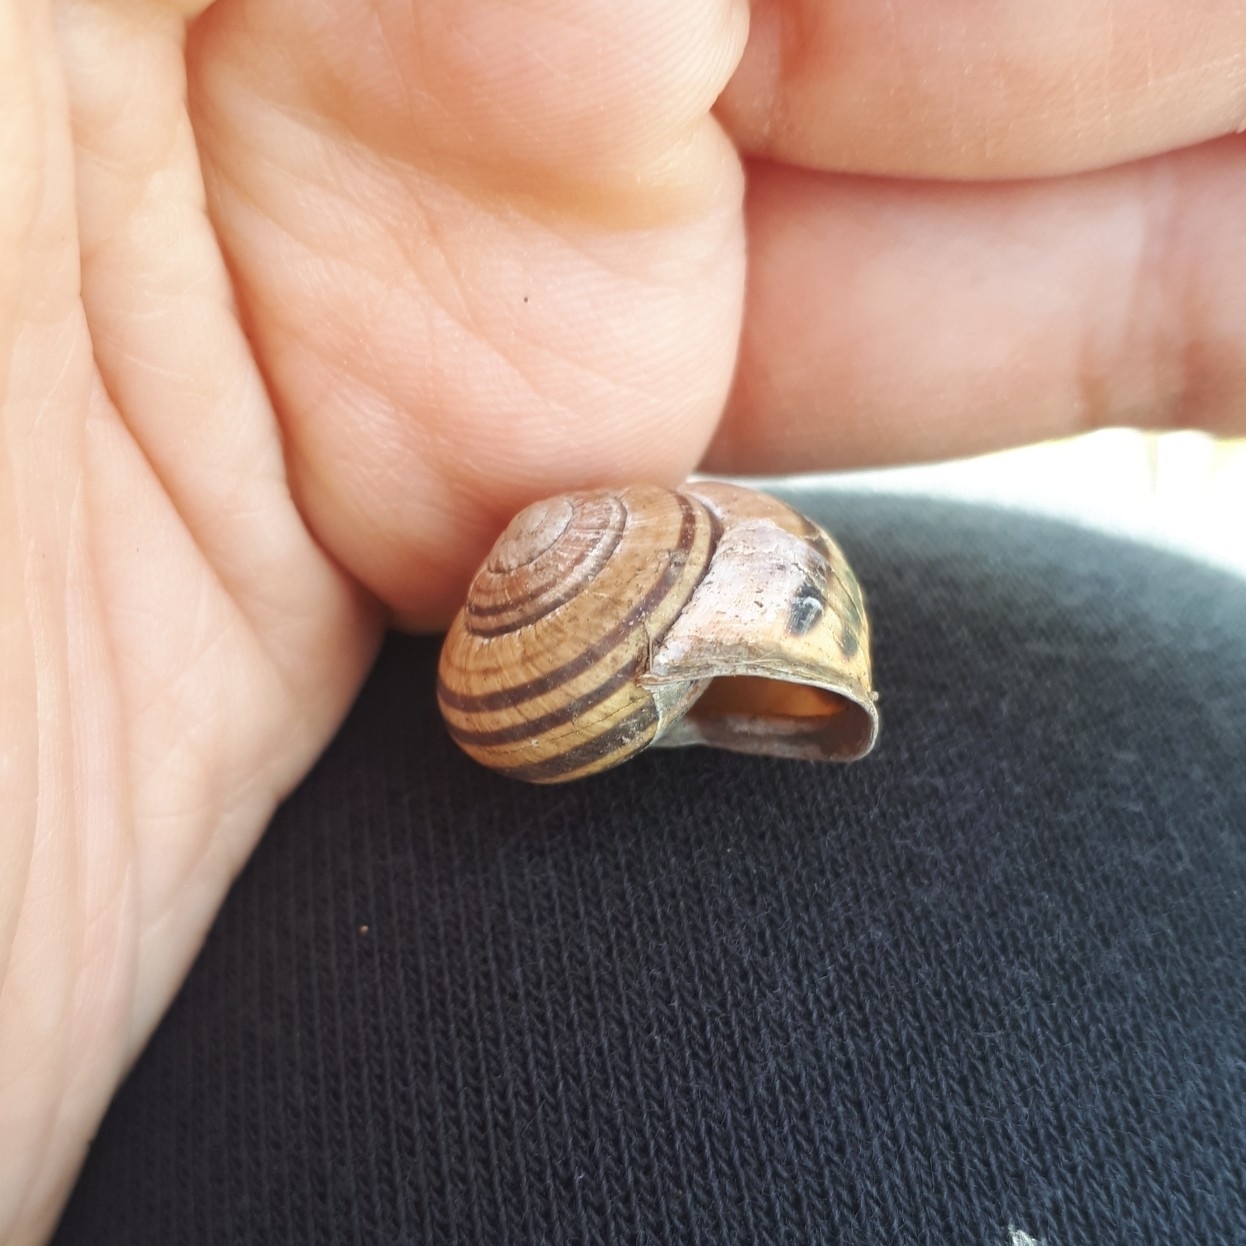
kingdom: Animalia
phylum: Mollusca
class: Gastropoda
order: Stylommatophora
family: Helicidae
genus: Cepaea
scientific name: Cepaea nemoralis
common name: Grovesnail
